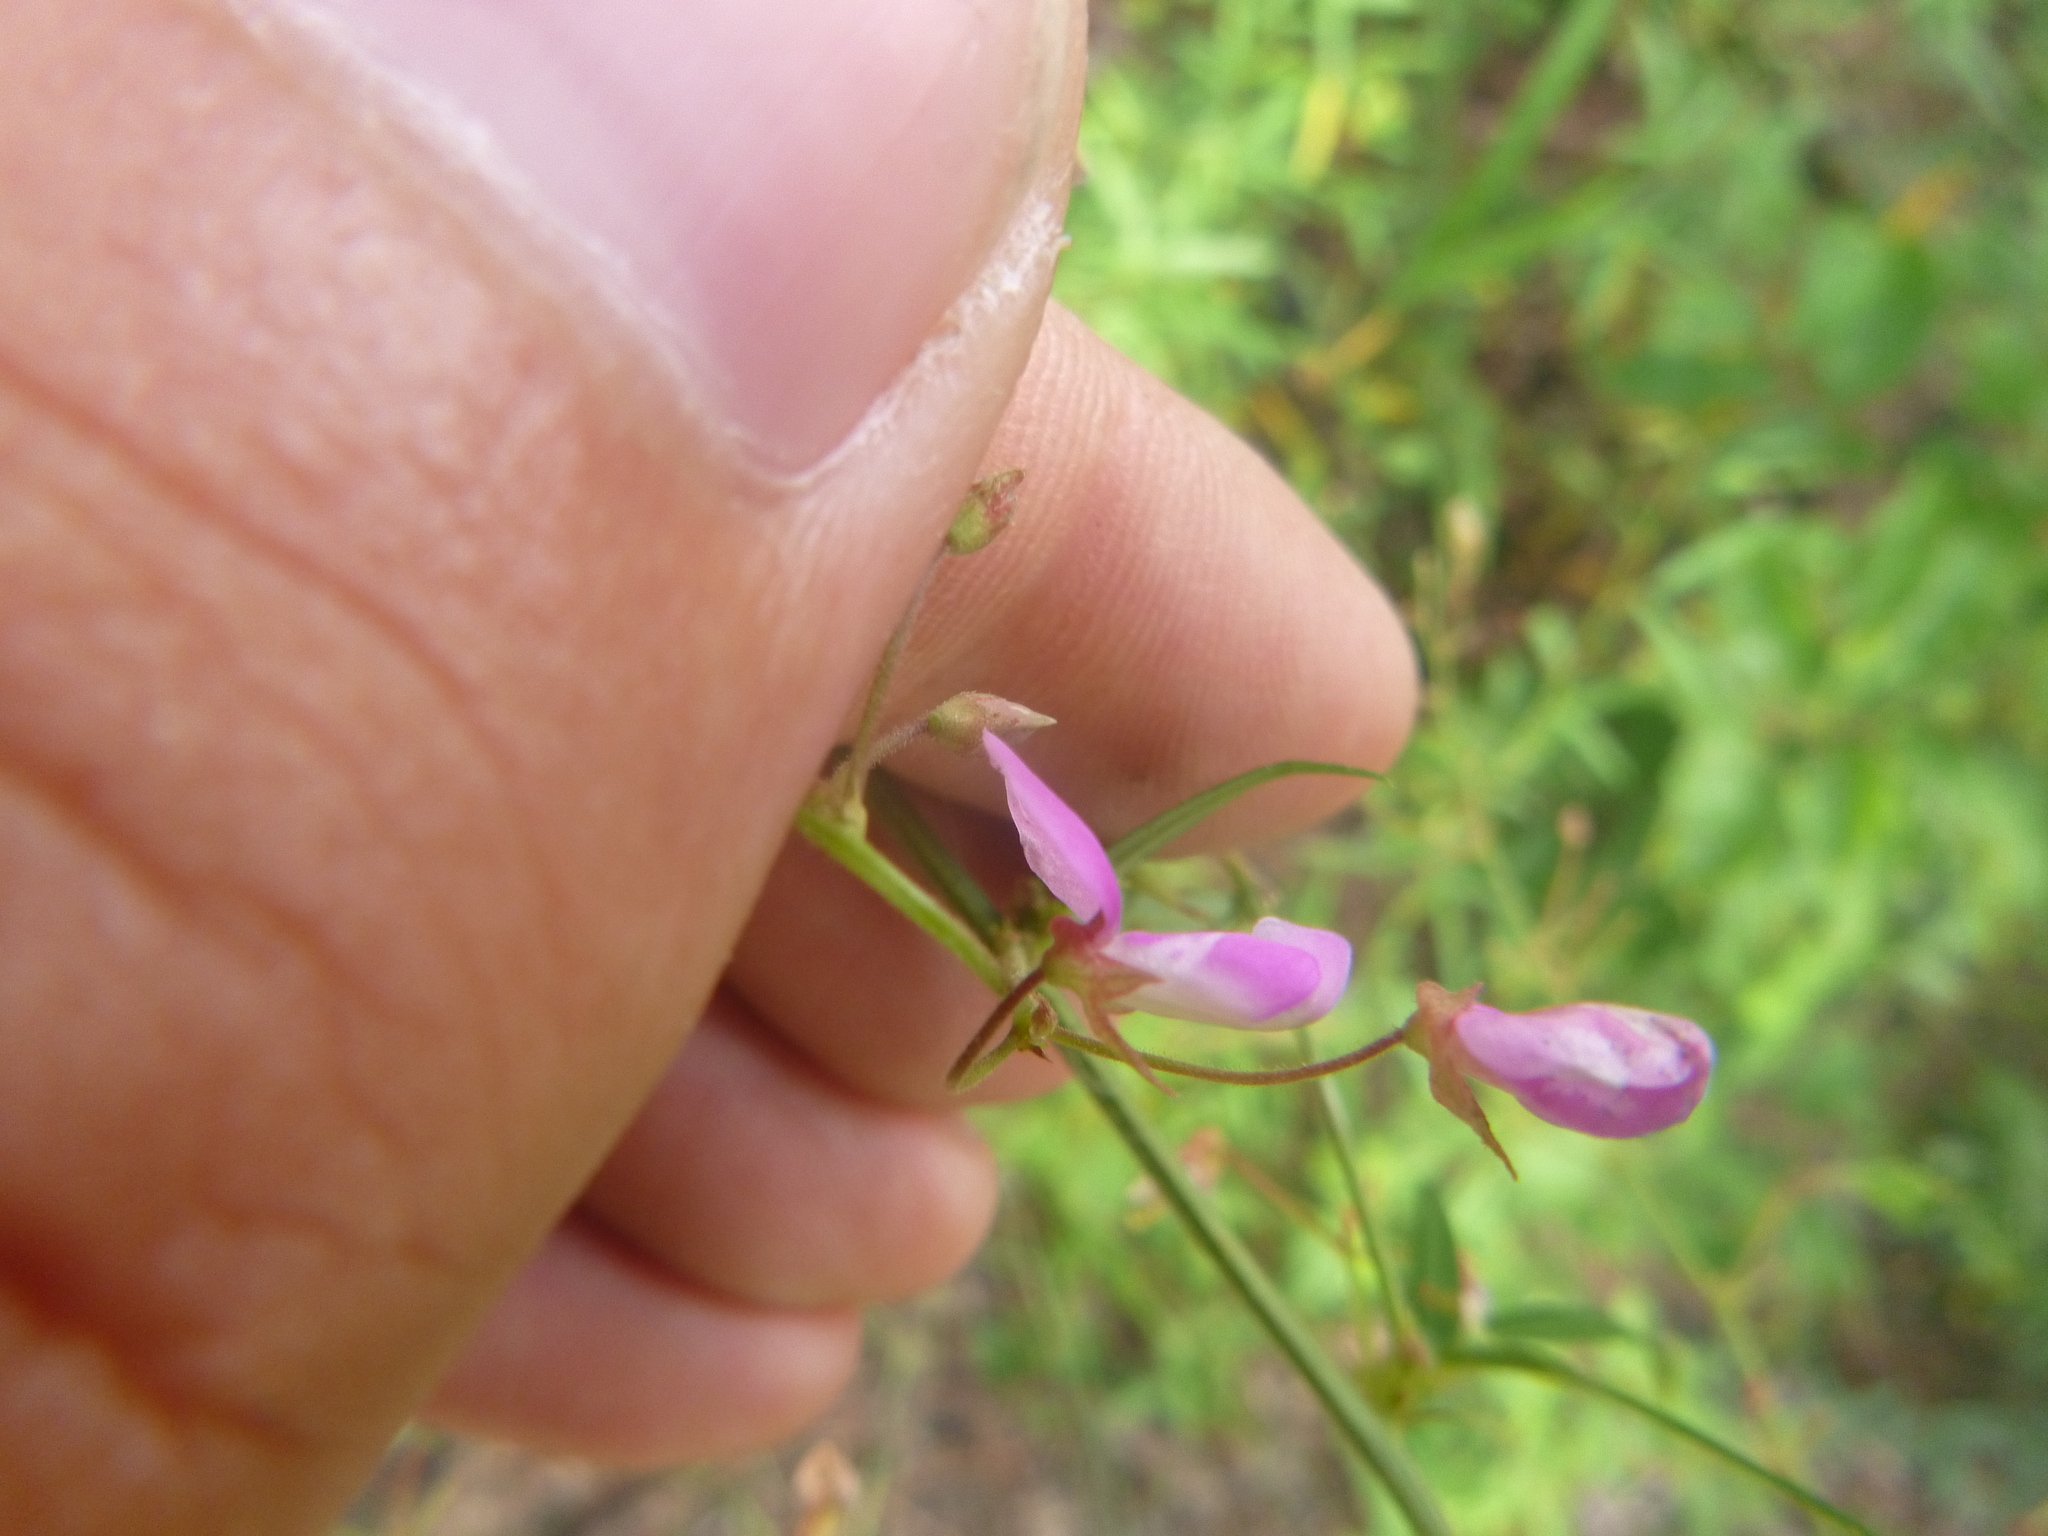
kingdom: Plantae
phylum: Tracheophyta
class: Magnoliopsida
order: Fabales
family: Fabaceae
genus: Desmodium
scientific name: Desmodium paniculatum
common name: Panicled tick-clover
